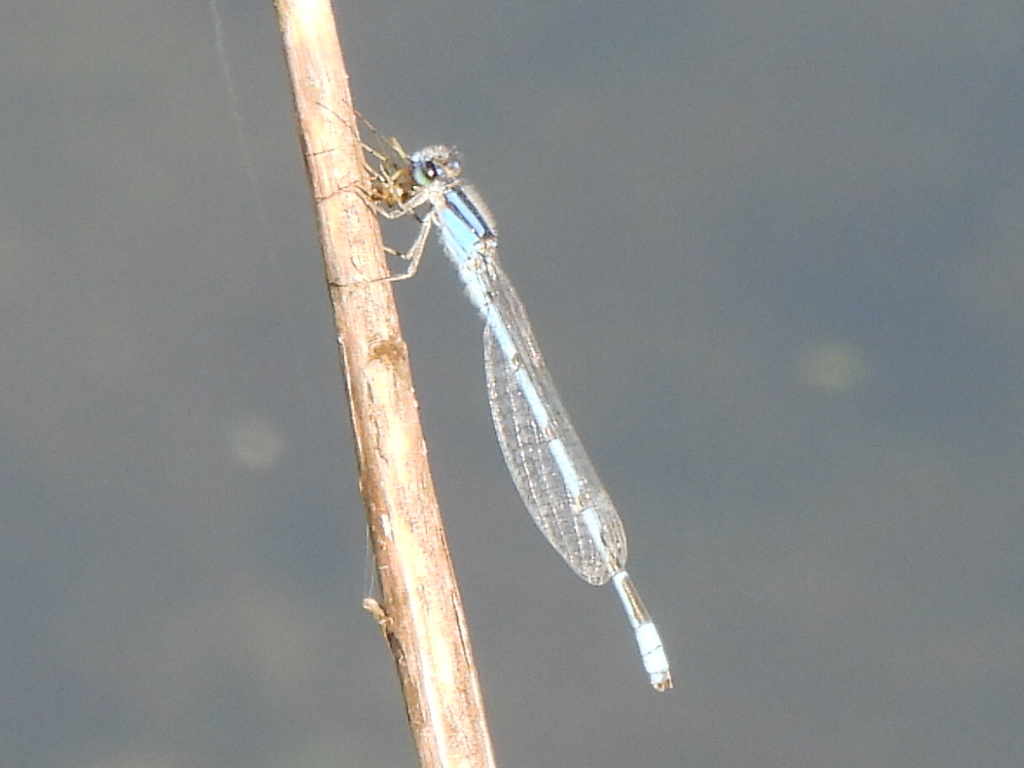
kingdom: Animalia
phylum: Arthropoda
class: Insecta
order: Odonata
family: Coenagrionidae
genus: Enallagma
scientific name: Enallagma civile
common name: Damselfly
